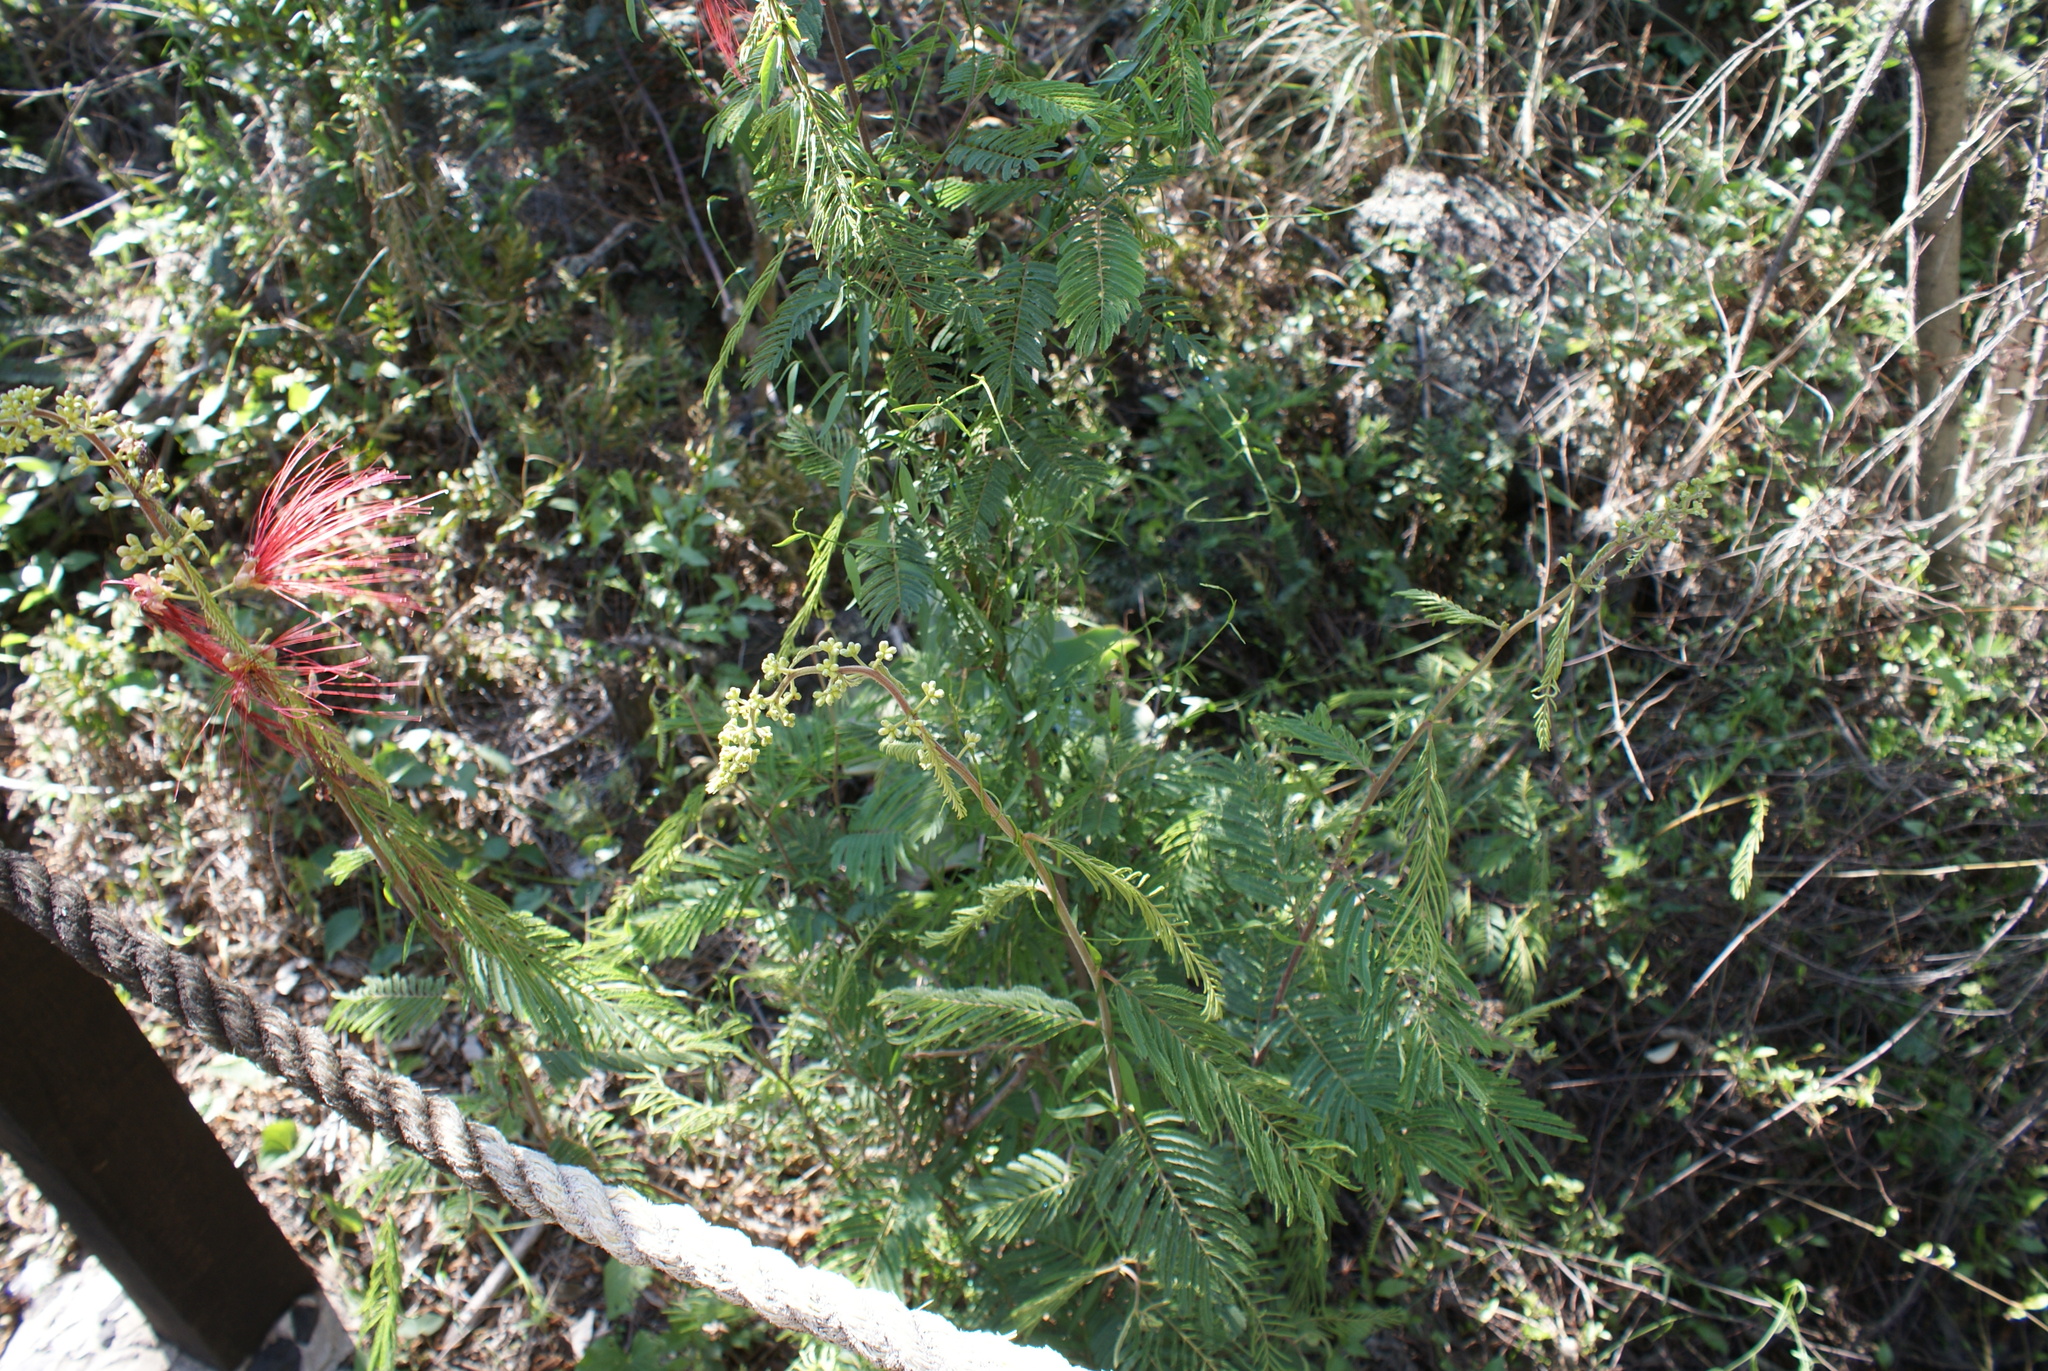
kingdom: Plantae
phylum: Tracheophyta
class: Magnoliopsida
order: Fabales
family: Fabaceae
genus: Calliandra
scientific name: Calliandra houstoniana
